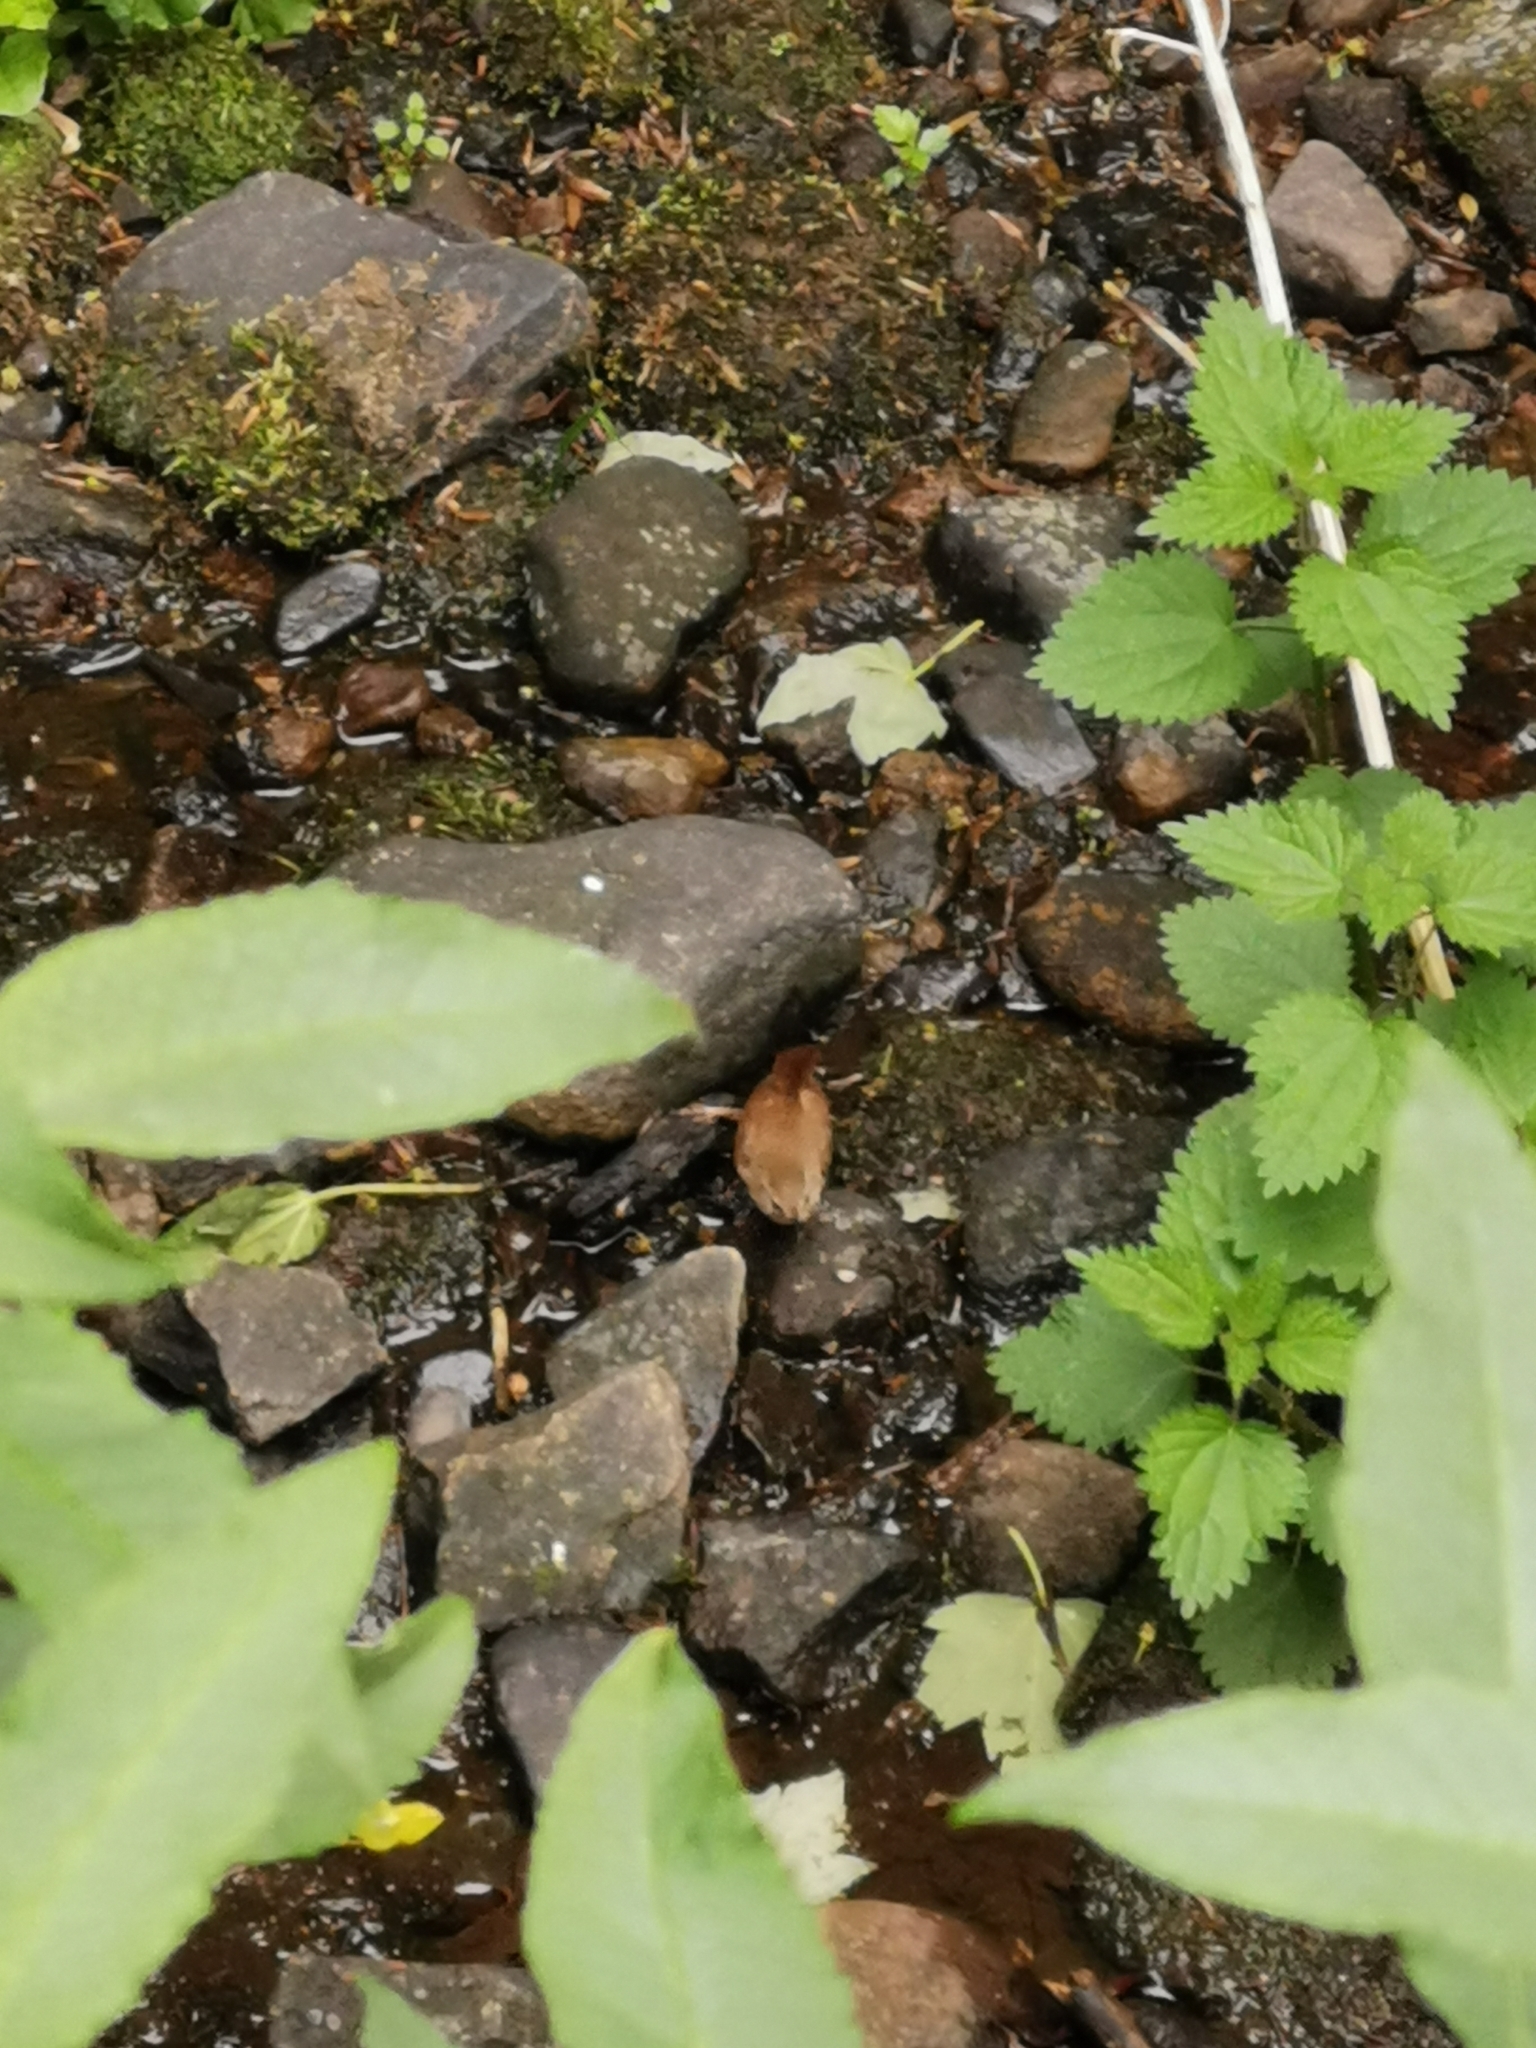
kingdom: Animalia
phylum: Chordata
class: Aves
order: Passeriformes
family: Troglodytidae
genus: Troglodytes
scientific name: Troglodytes troglodytes
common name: Eurasian wren
